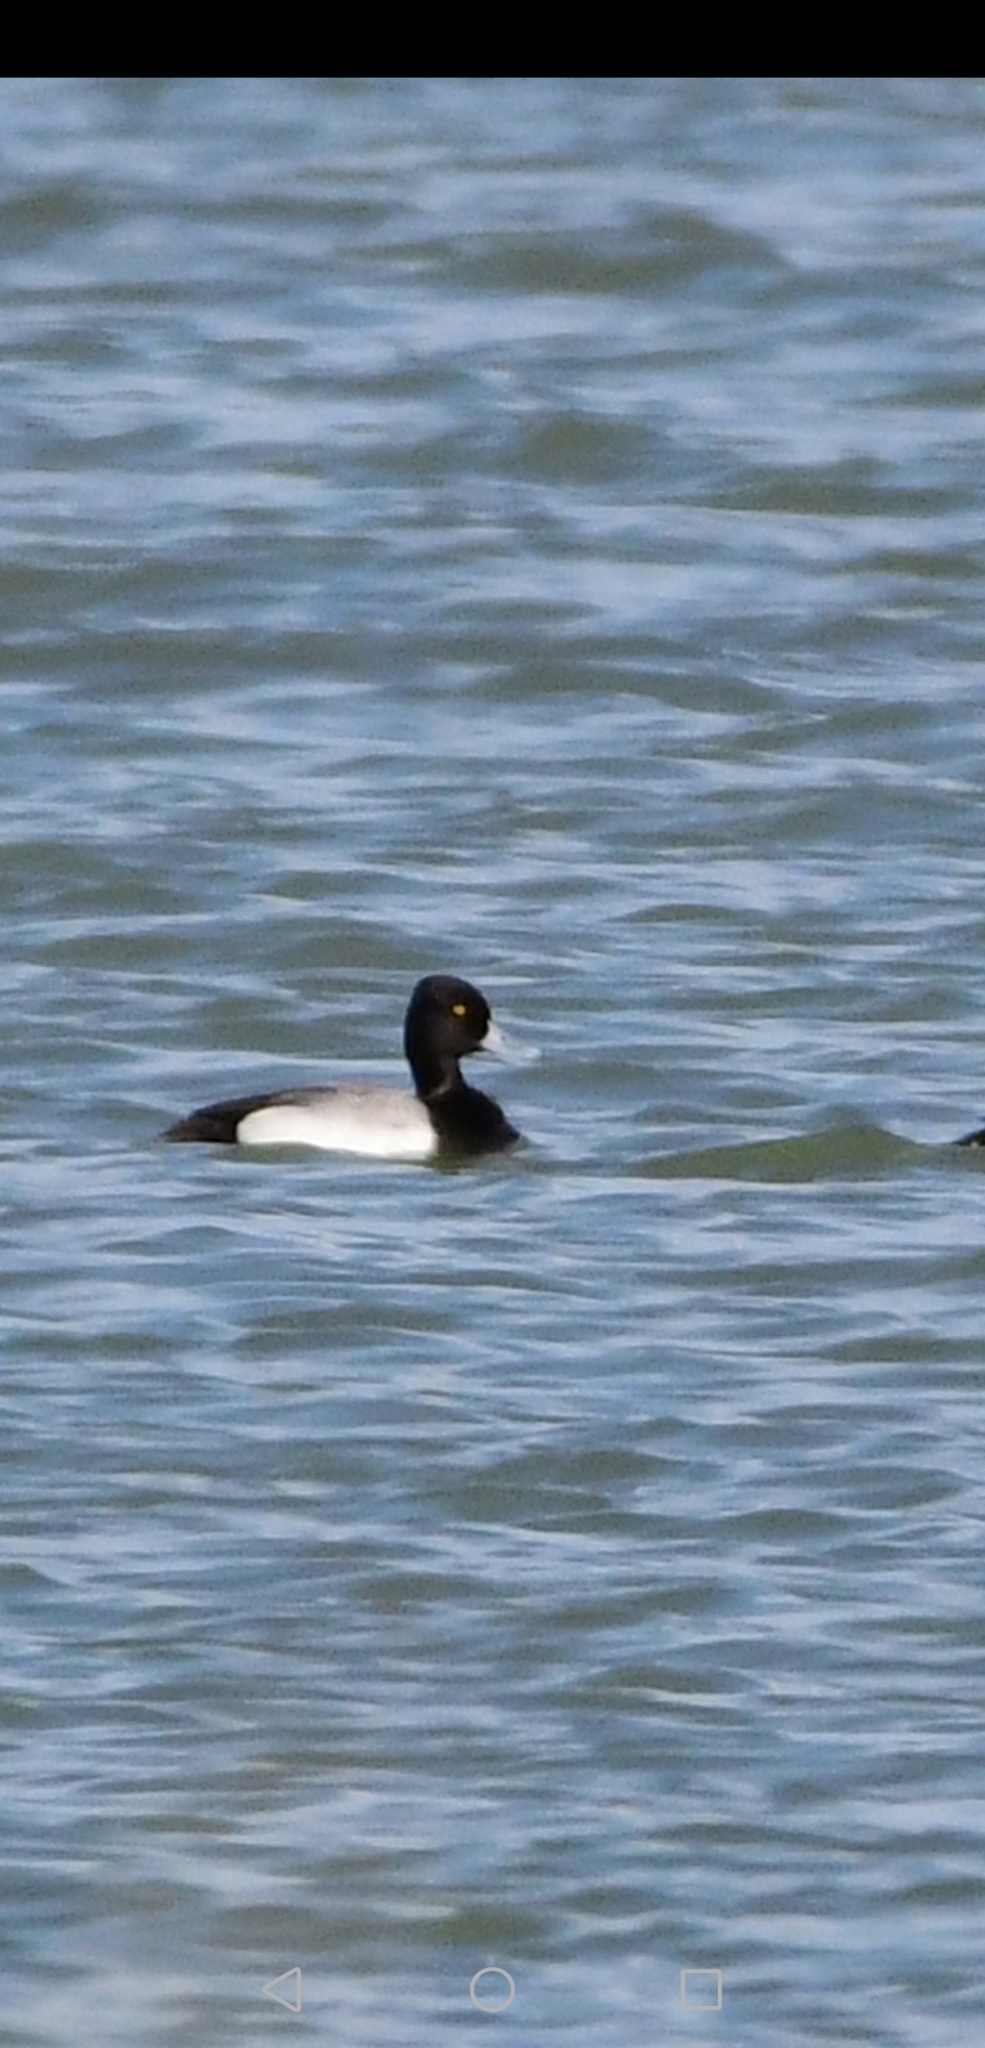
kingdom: Animalia
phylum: Chordata
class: Aves
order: Anseriformes
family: Anatidae
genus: Aythya
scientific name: Aythya affinis
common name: Lesser scaup
